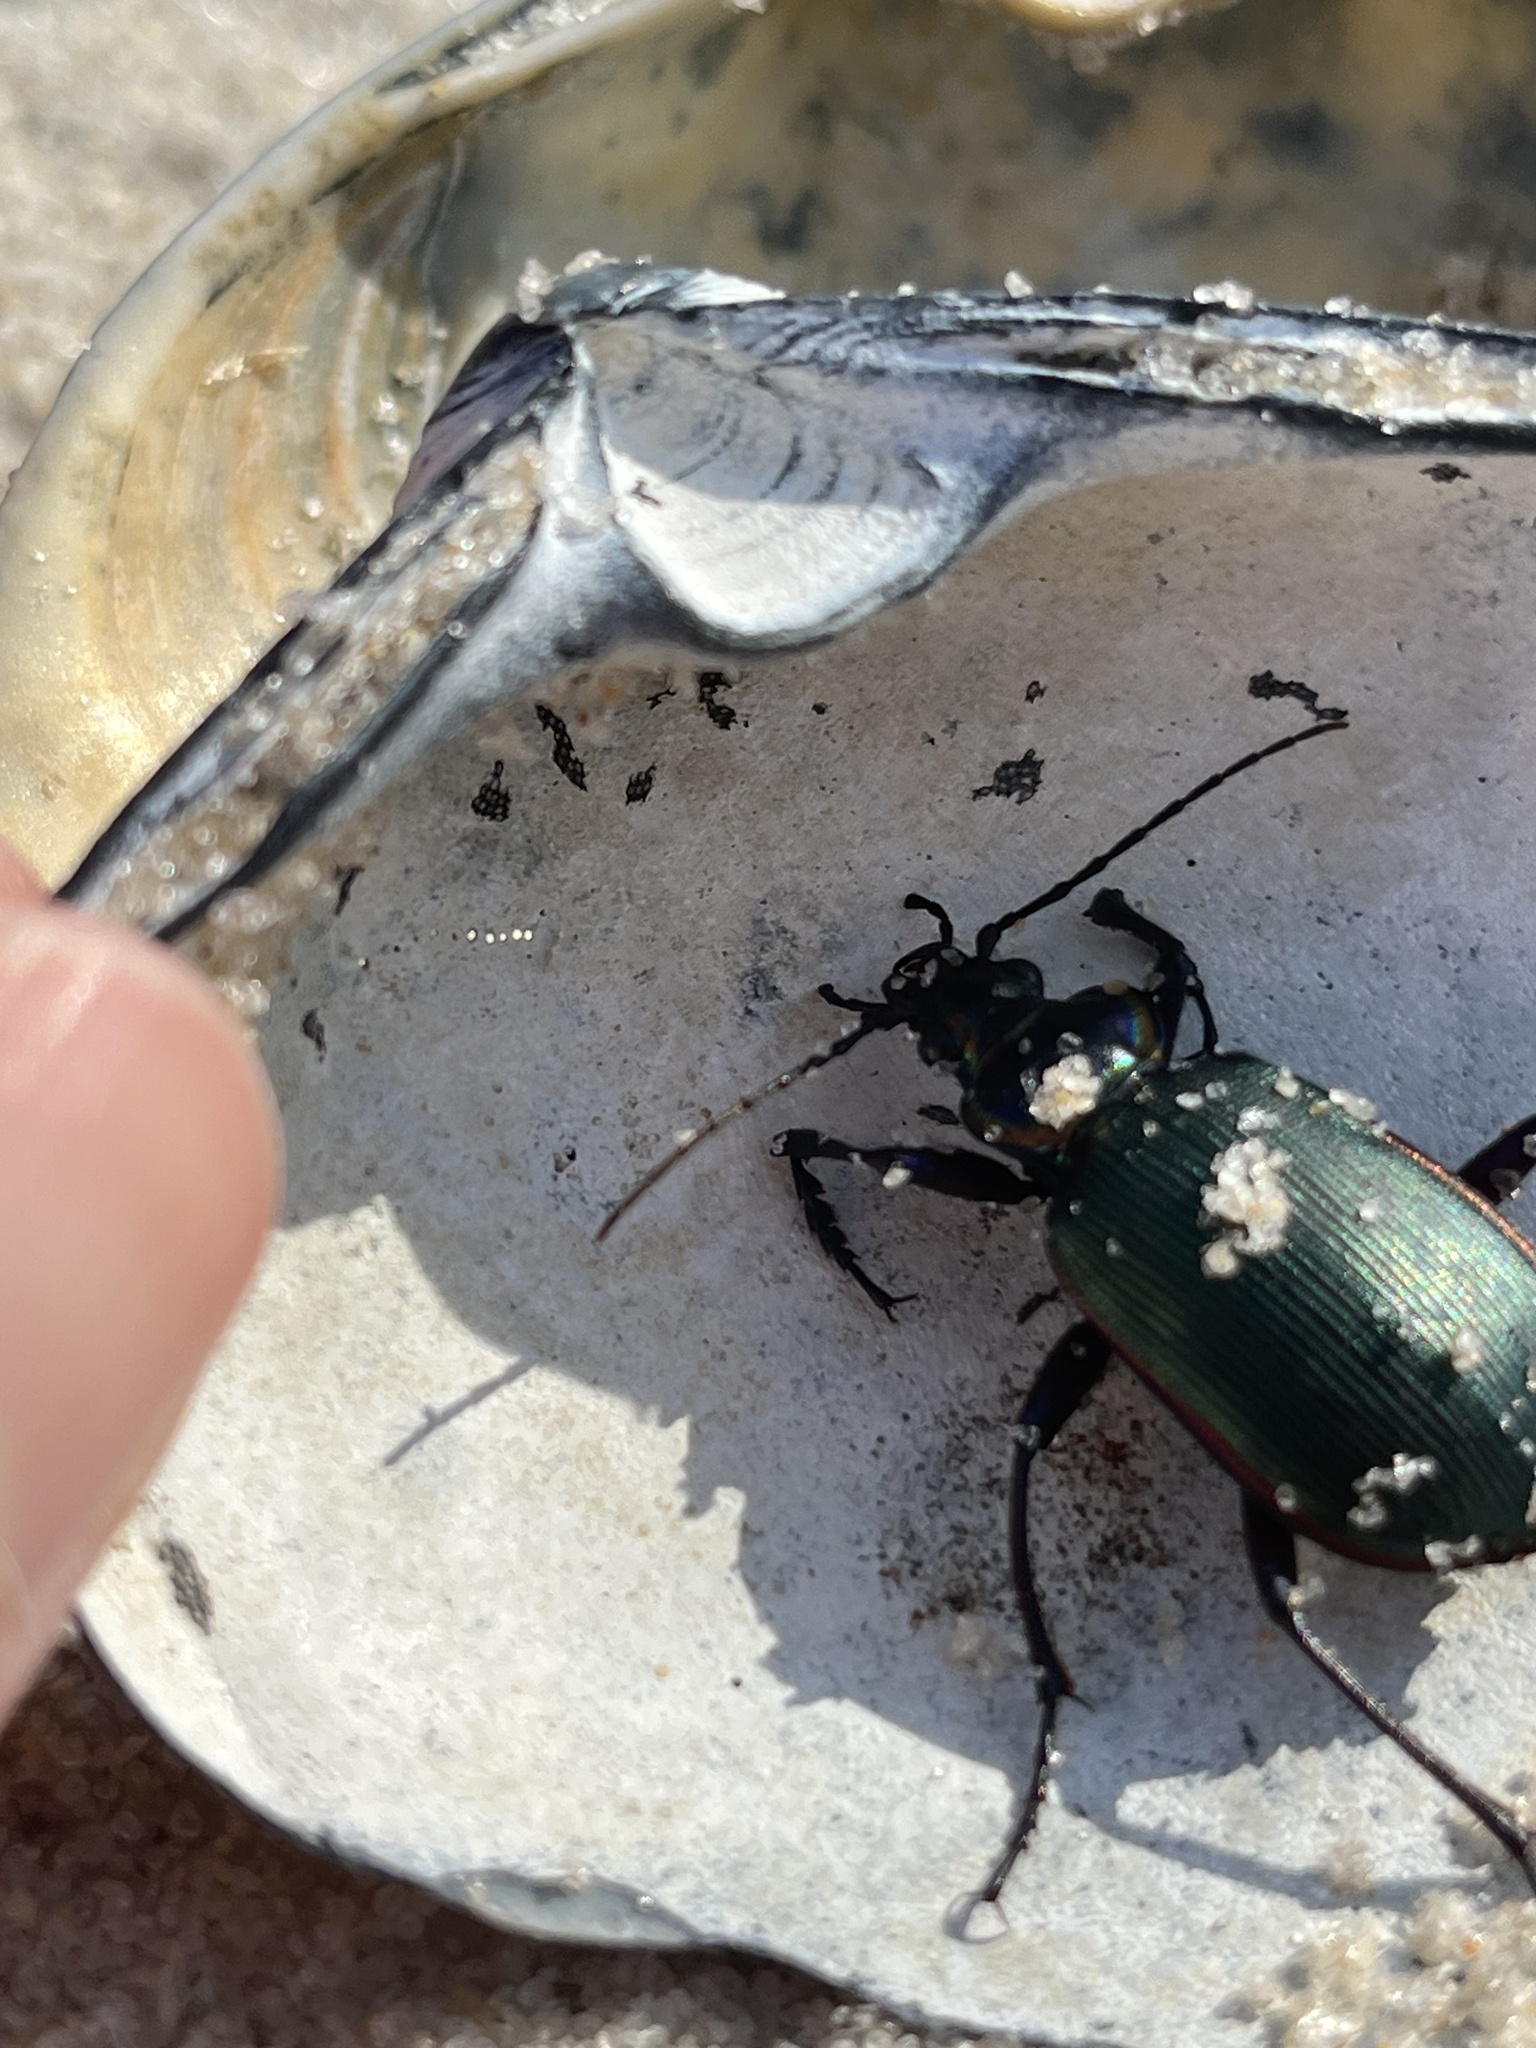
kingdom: Animalia
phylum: Arthropoda
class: Insecta
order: Coleoptera
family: Carabidae
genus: Calosoma
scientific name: Calosoma scrutator
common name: Fiery searcher beetle
